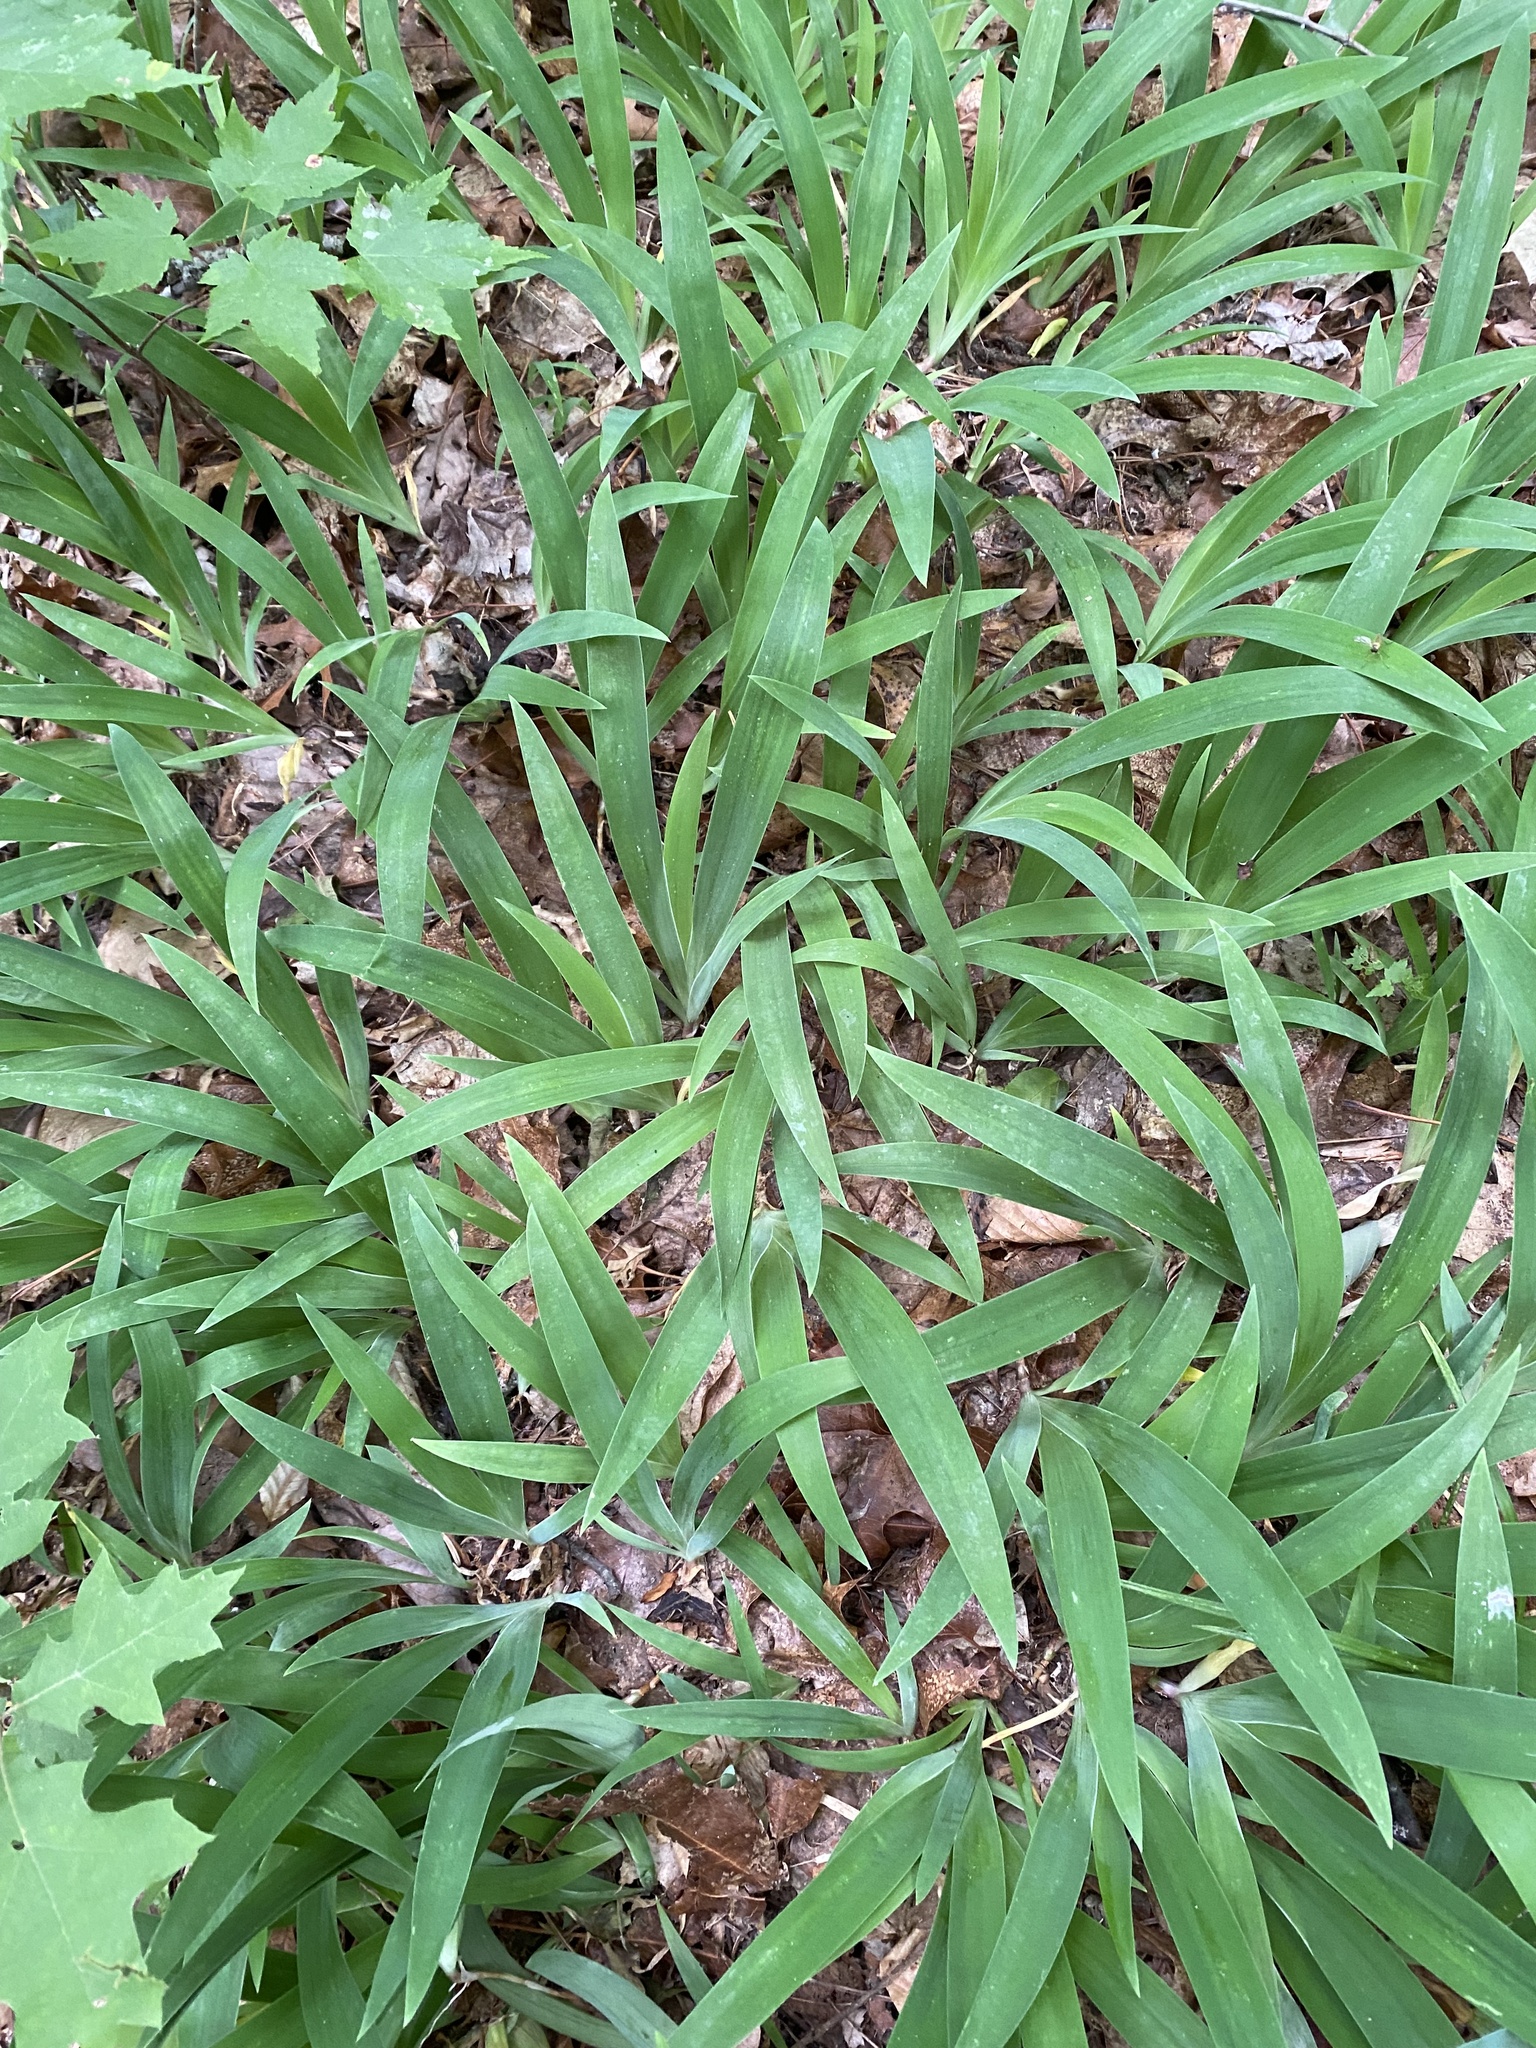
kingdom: Plantae
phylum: Tracheophyta
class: Liliopsida
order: Asparagales
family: Iridaceae
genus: Iris
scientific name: Iris cristata
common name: Crested iris
